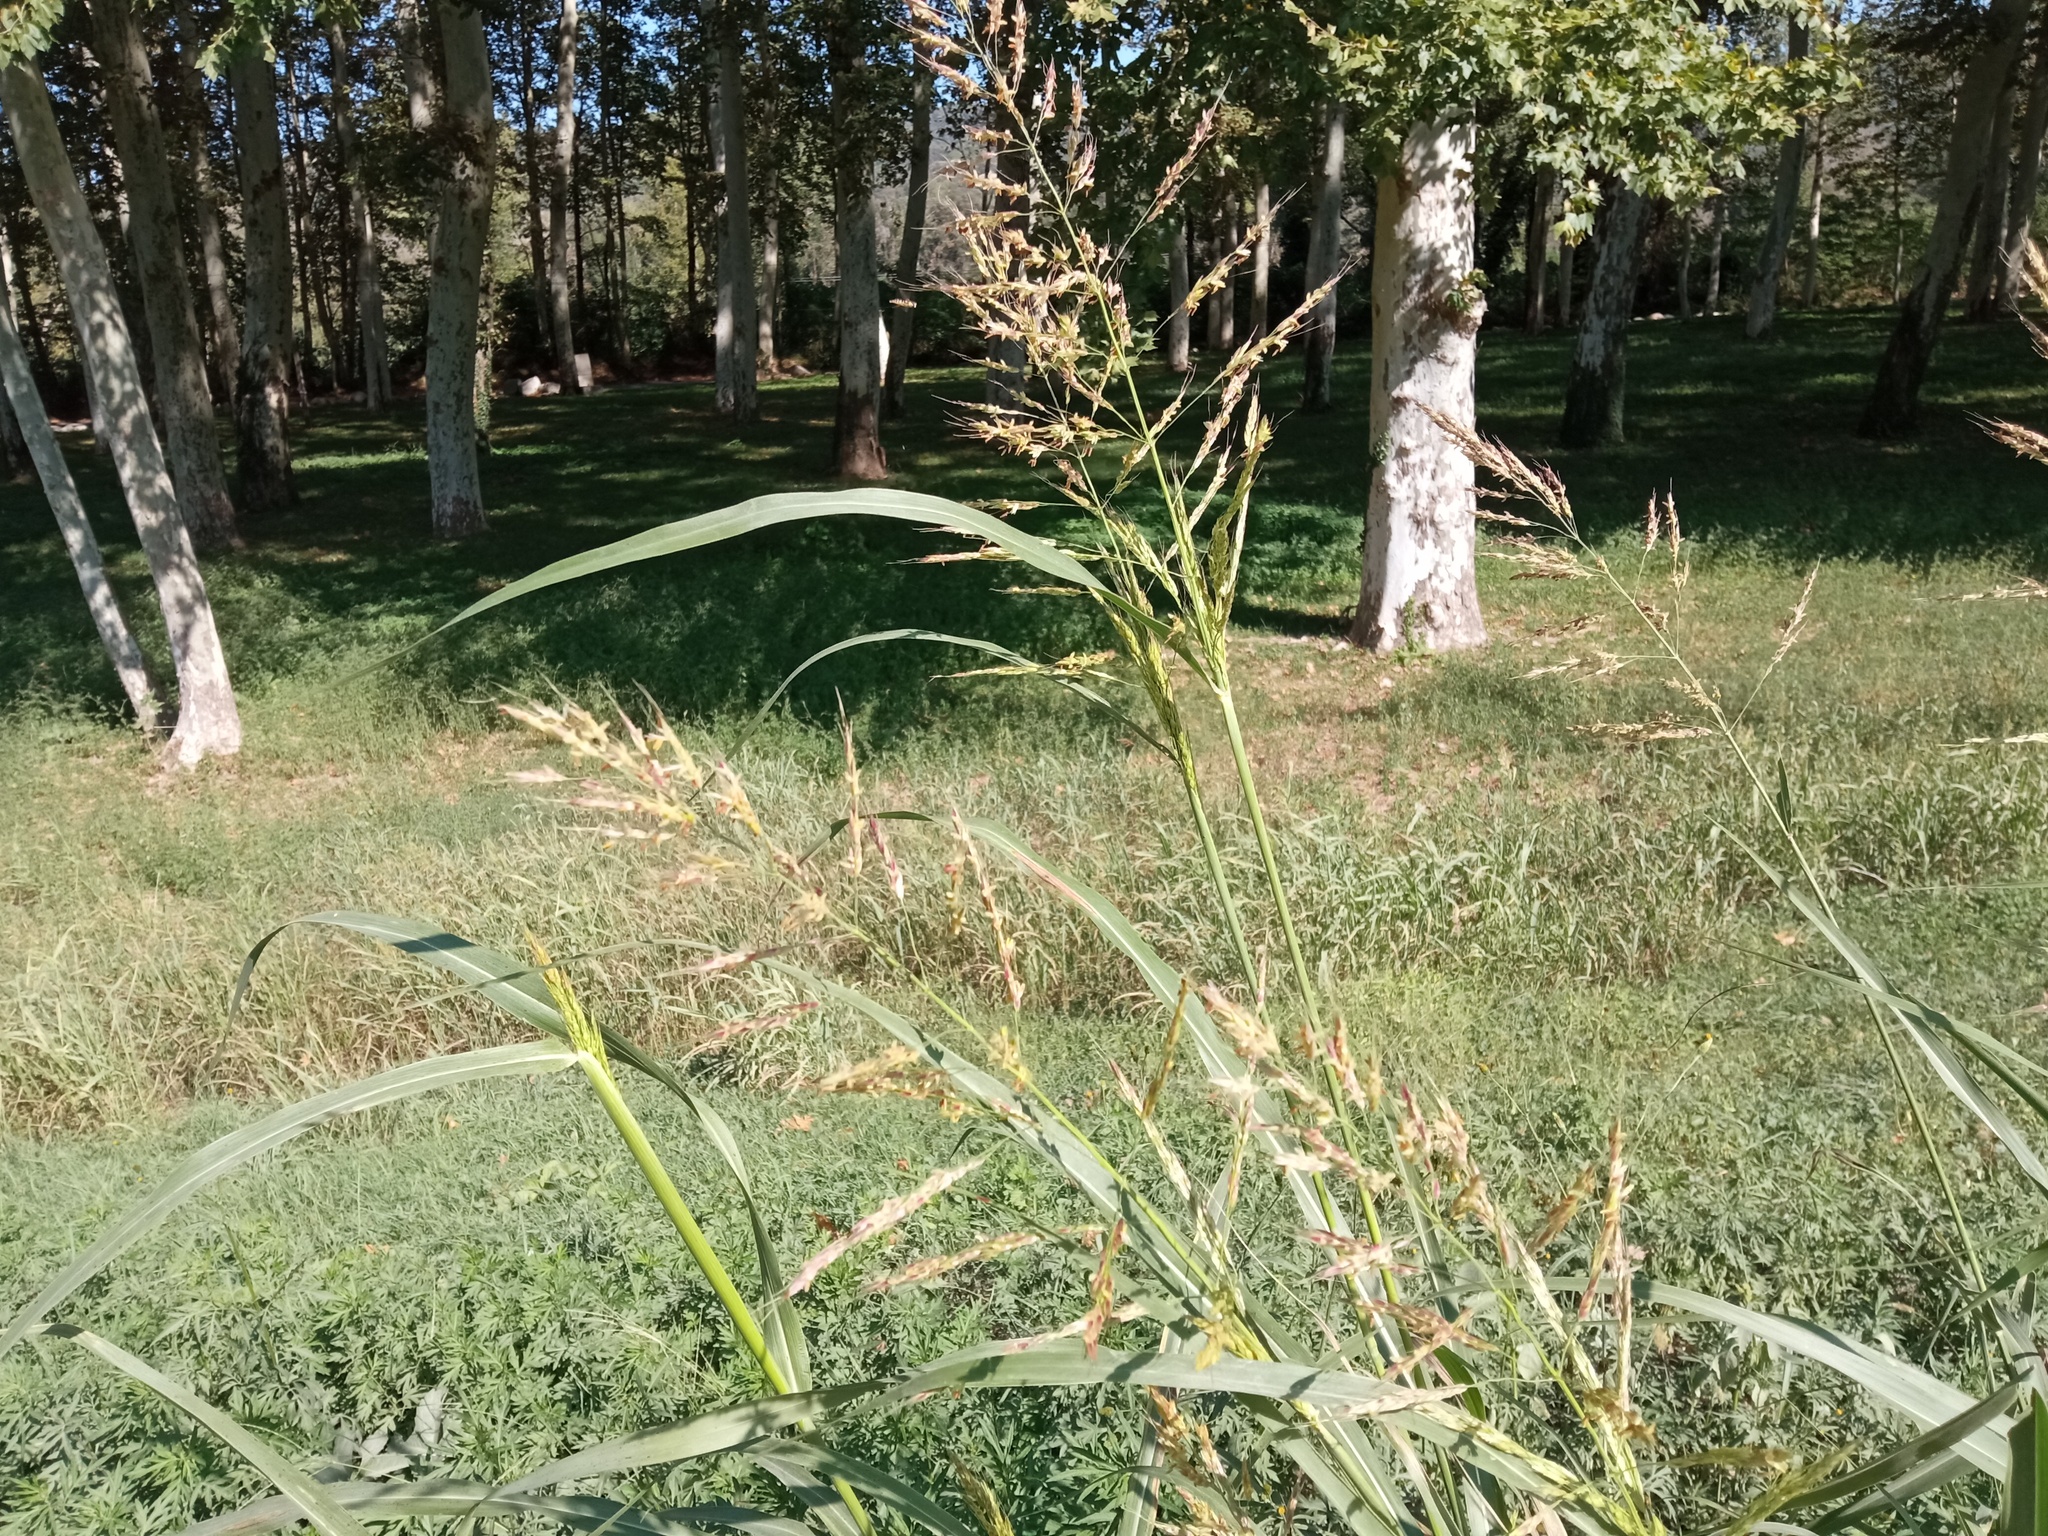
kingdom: Plantae
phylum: Tracheophyta
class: Liliopsida
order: Poales
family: Poaceae
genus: Sorghum
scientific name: Sorghum halepense
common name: Johnson-grass
